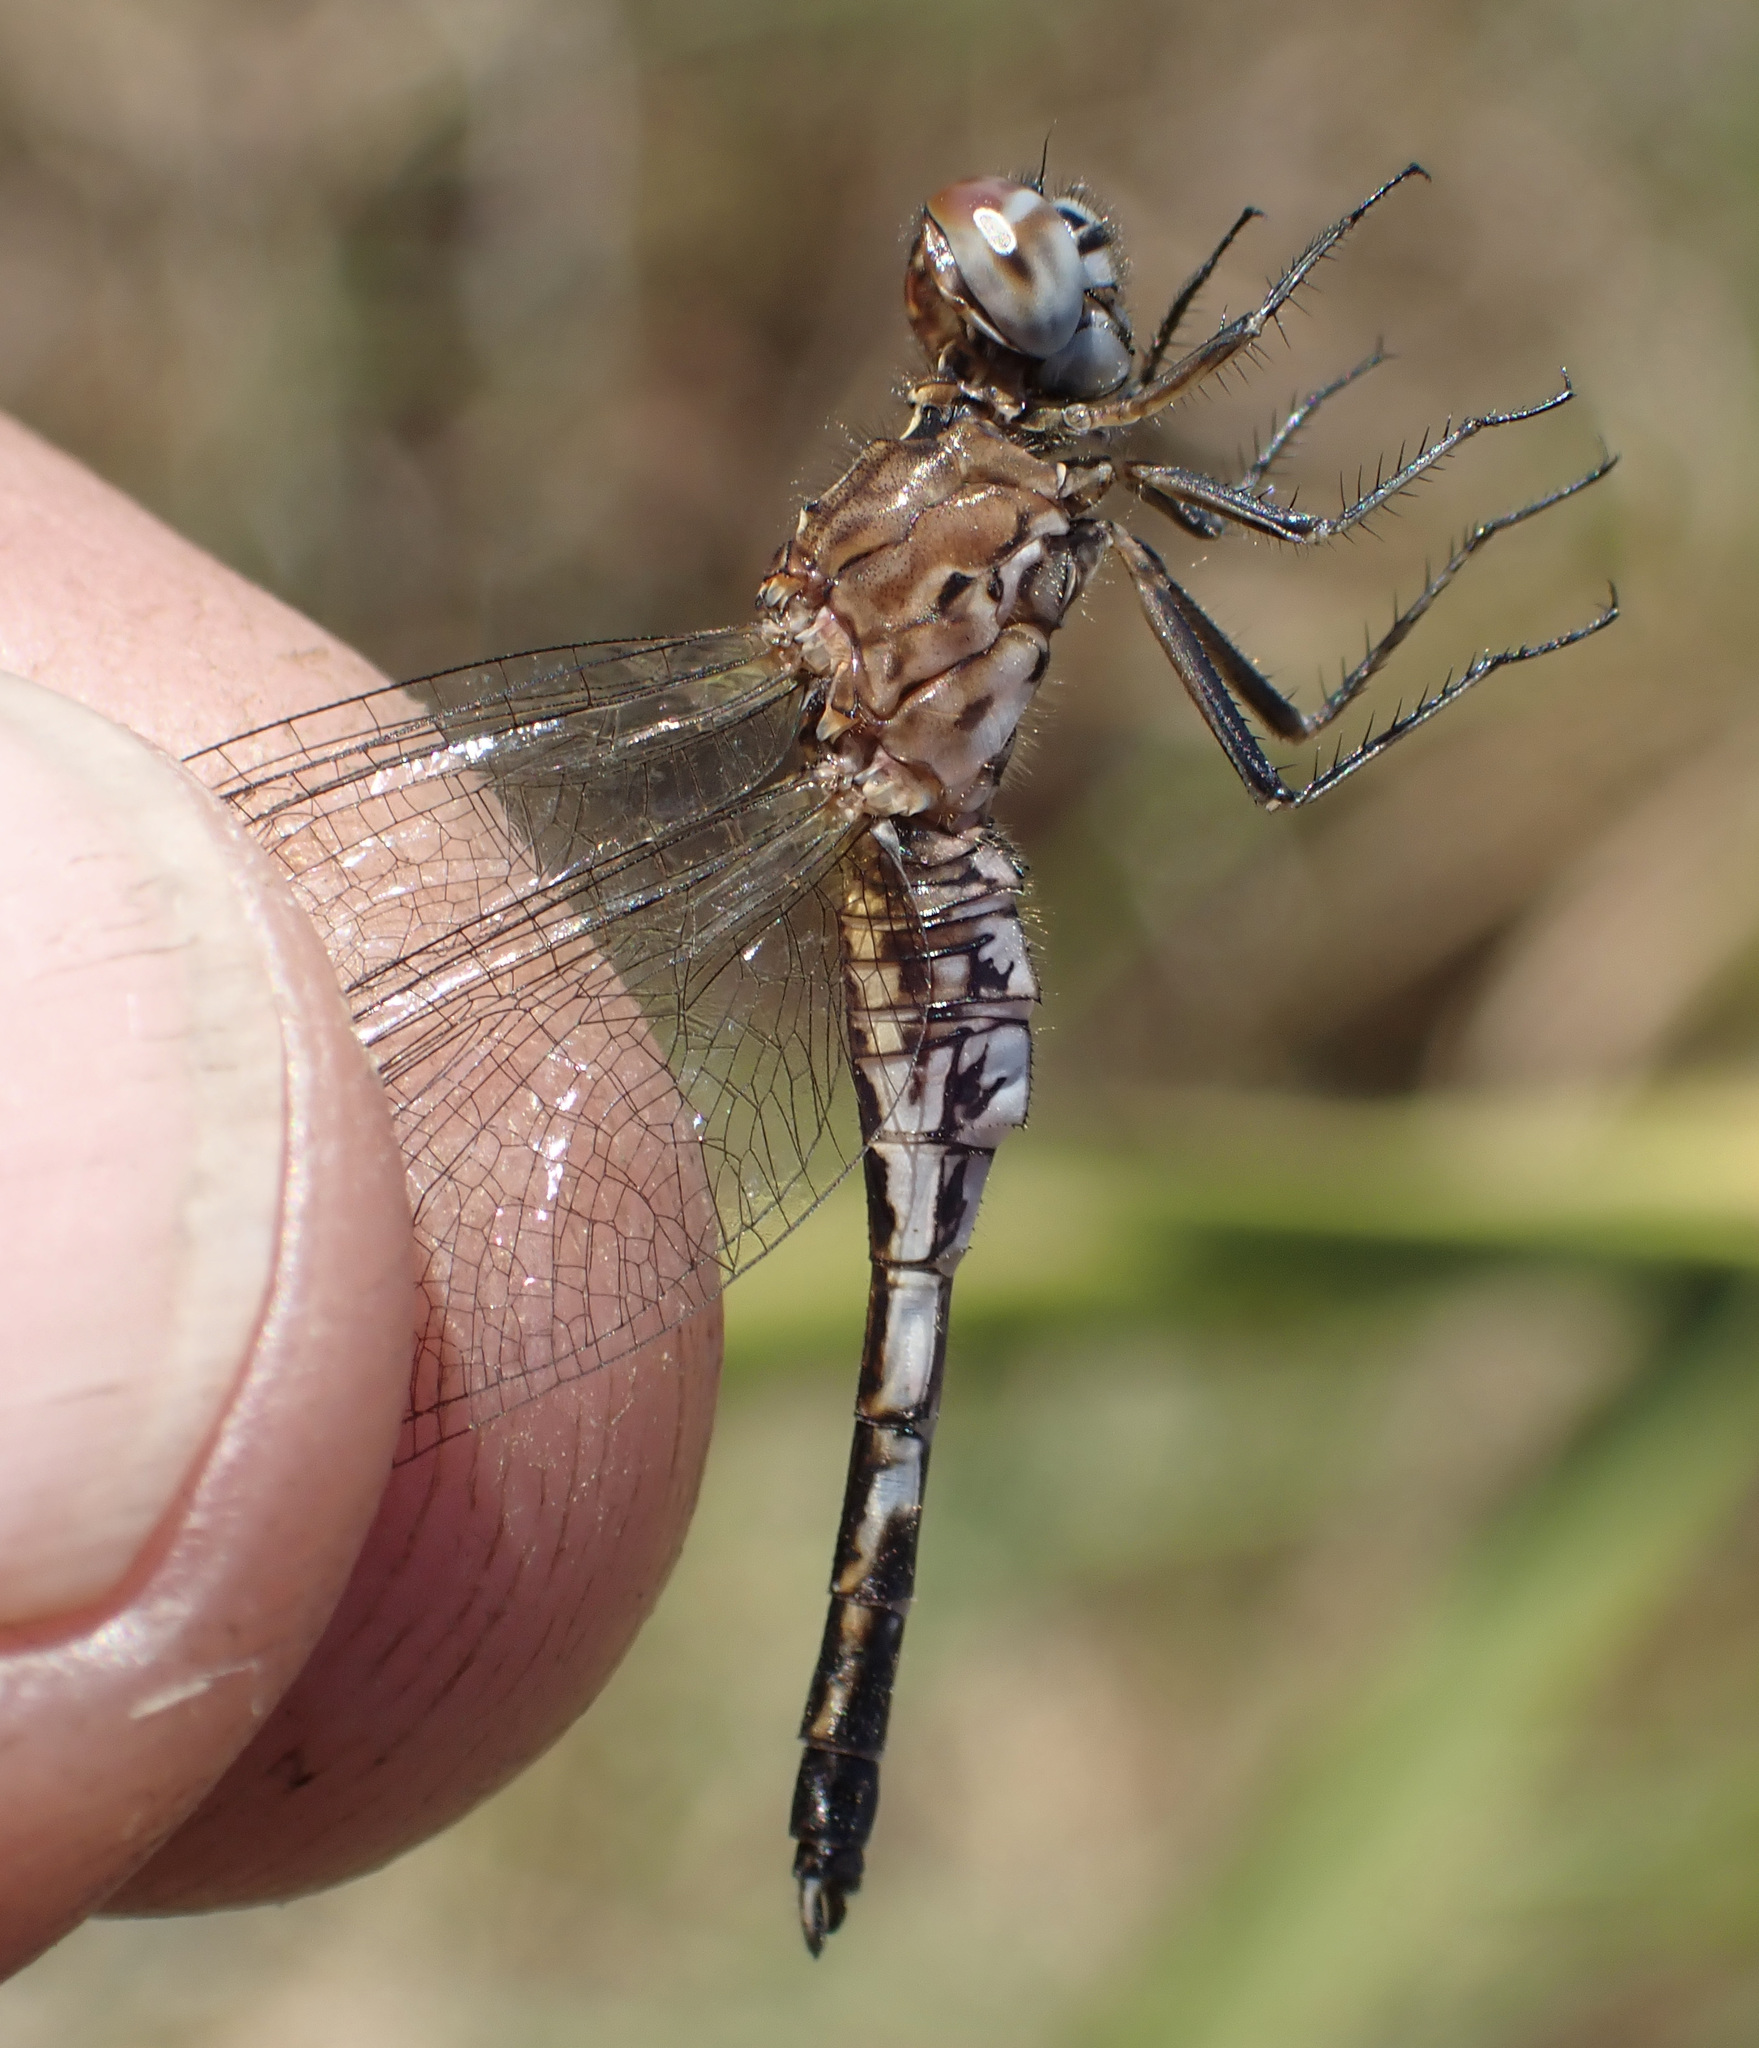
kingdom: Animalia
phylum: Arthropoda
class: Insecta
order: Odonata
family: Libellulidae
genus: Acisoma
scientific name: Acisoma inflatum
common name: Stout pintail
